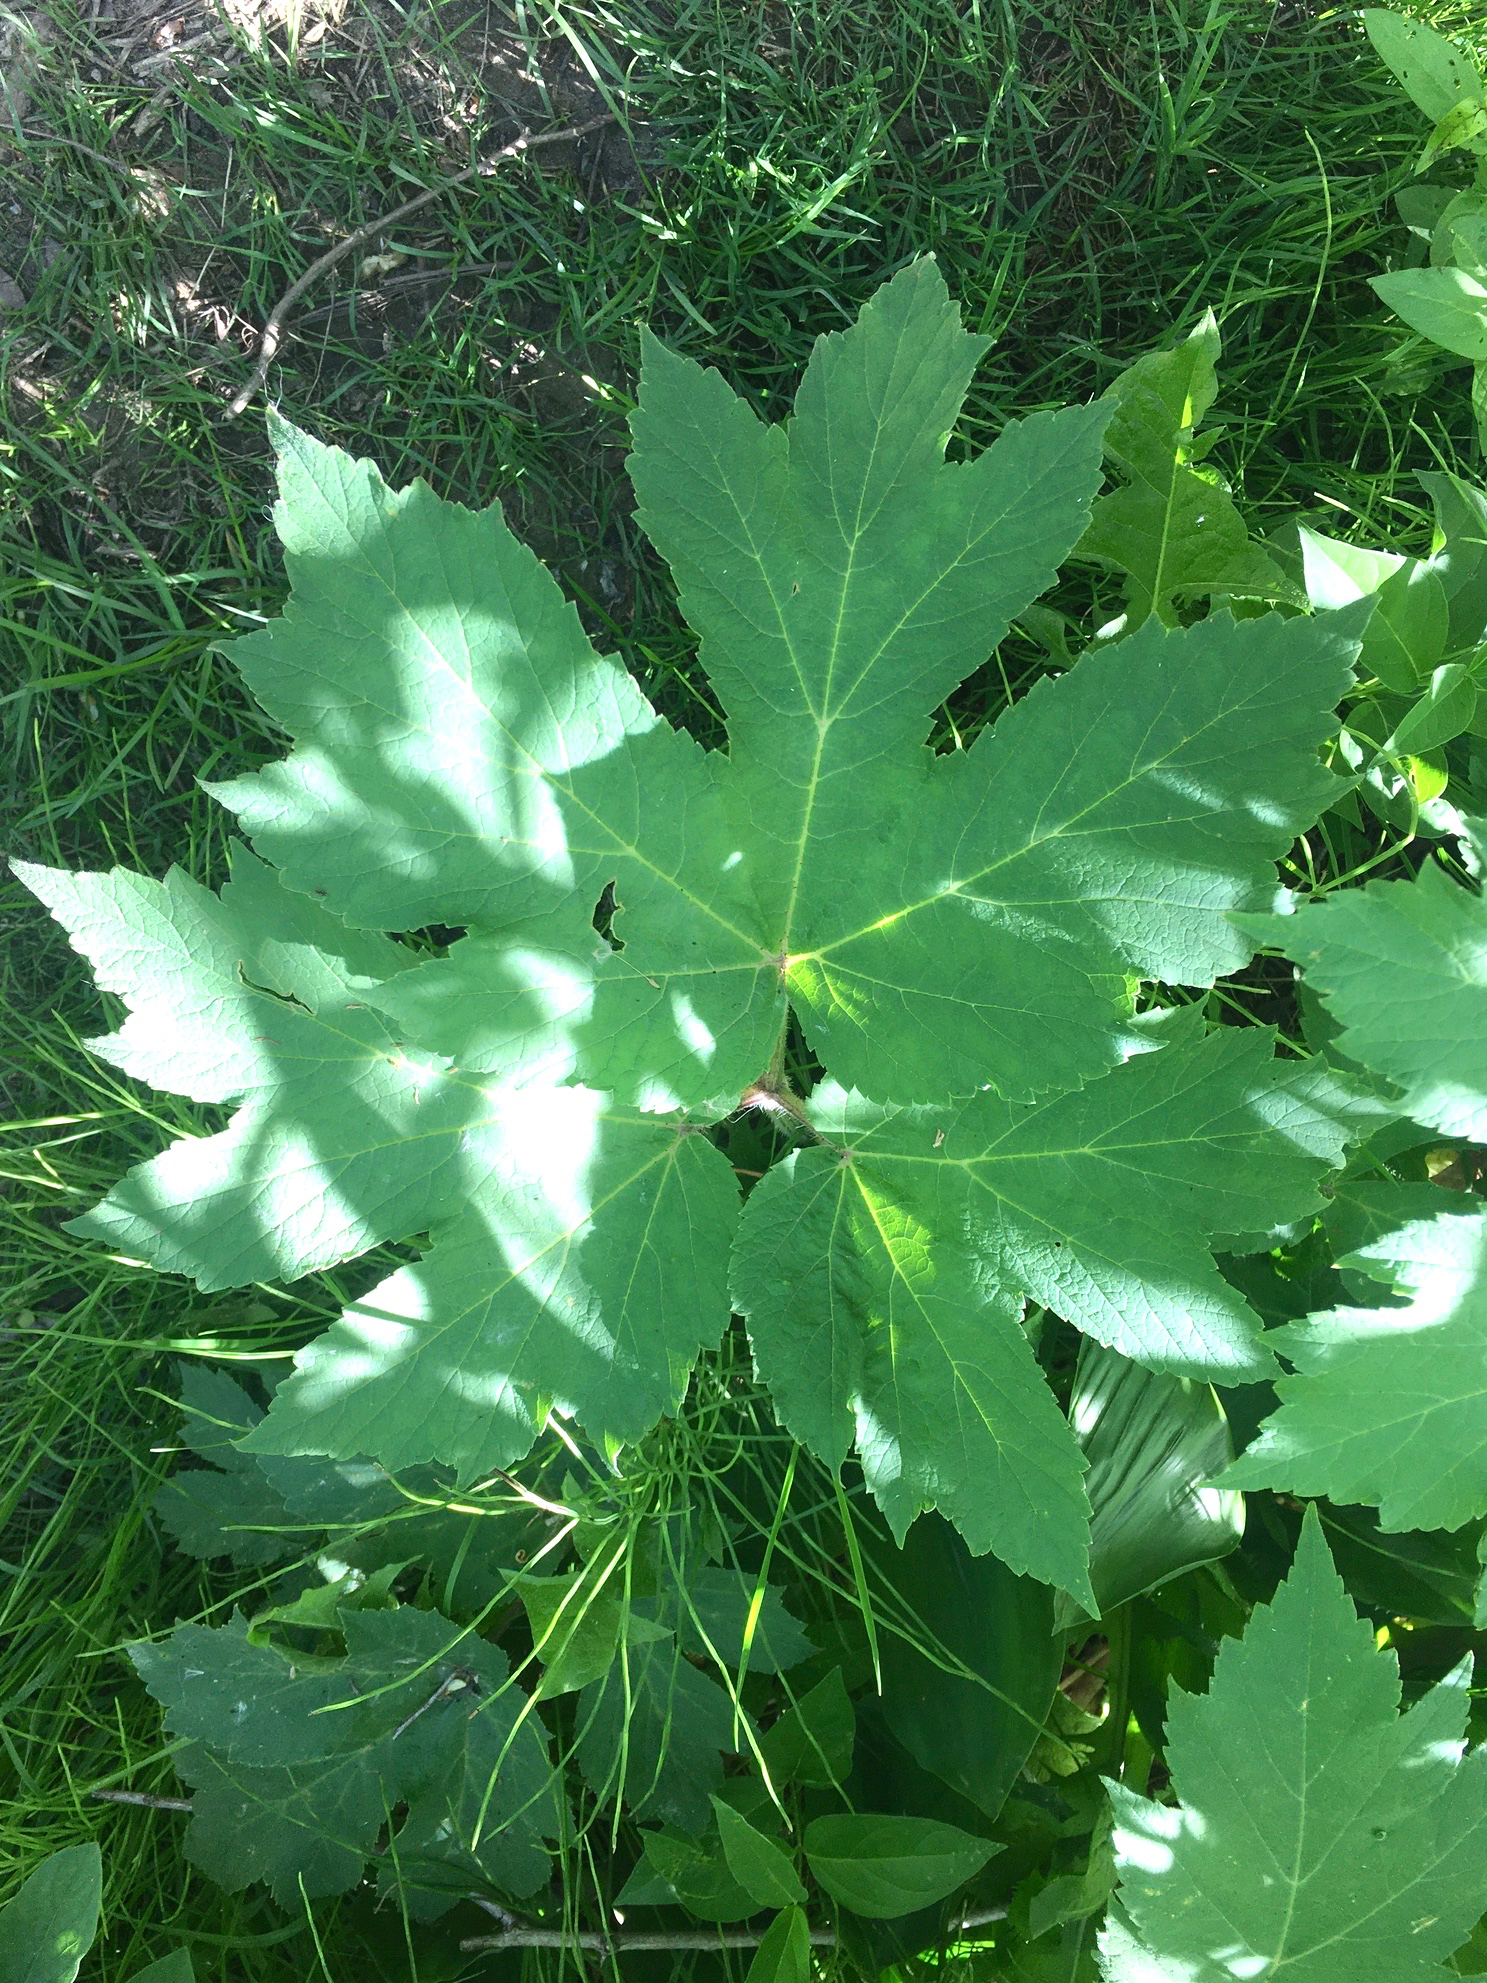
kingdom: Plantae
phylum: Tracheophyta
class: Magnoliopsida
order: Apiales
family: Apiaceae
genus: Heracleum
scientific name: Heracleum maximum
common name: American cow parsnip
